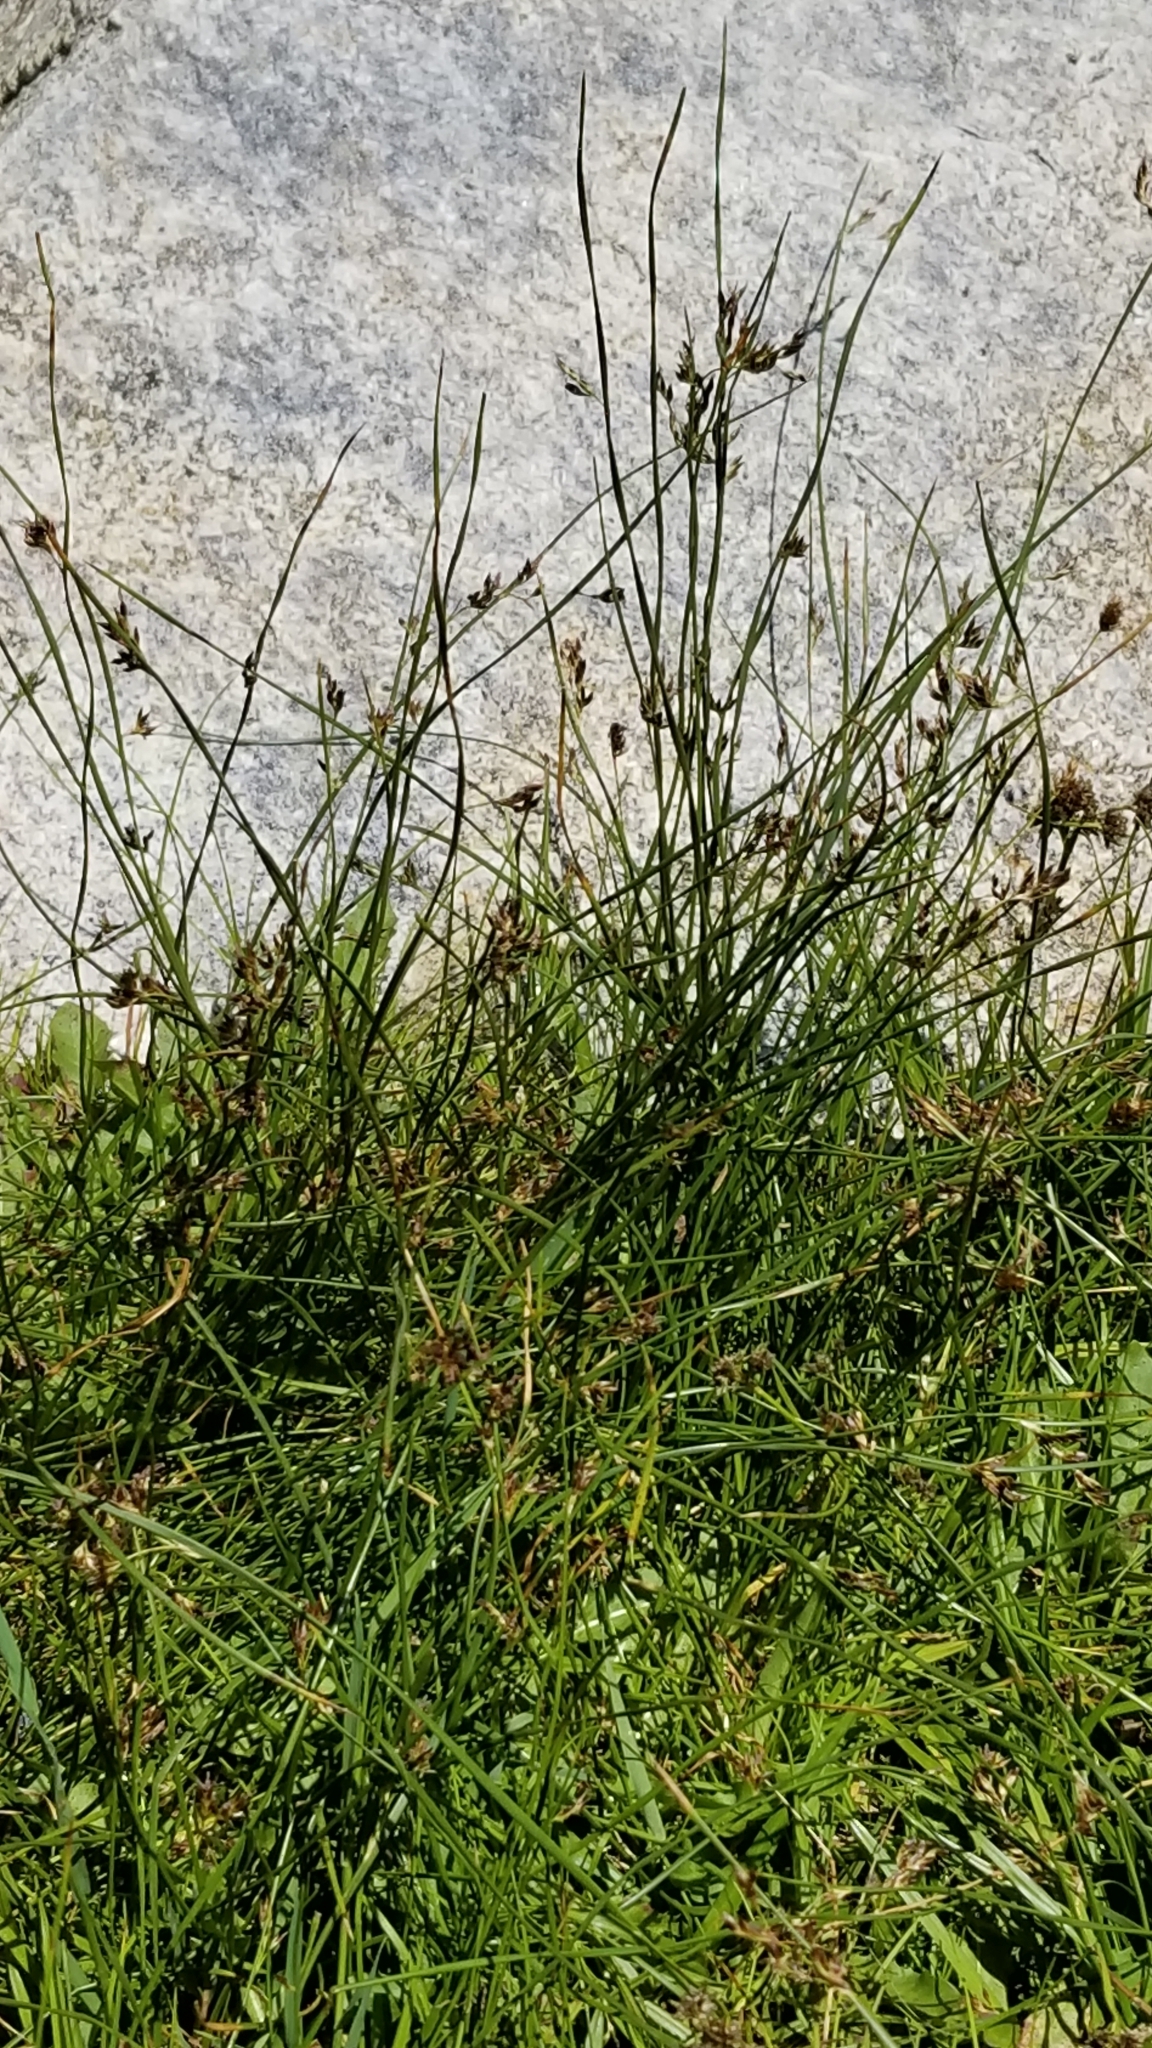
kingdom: Plantae
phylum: Tracheophyta
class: Liliopsida
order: Poales
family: Juncaceae
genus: Juncus
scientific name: Juncus balticus
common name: Baltic rush
